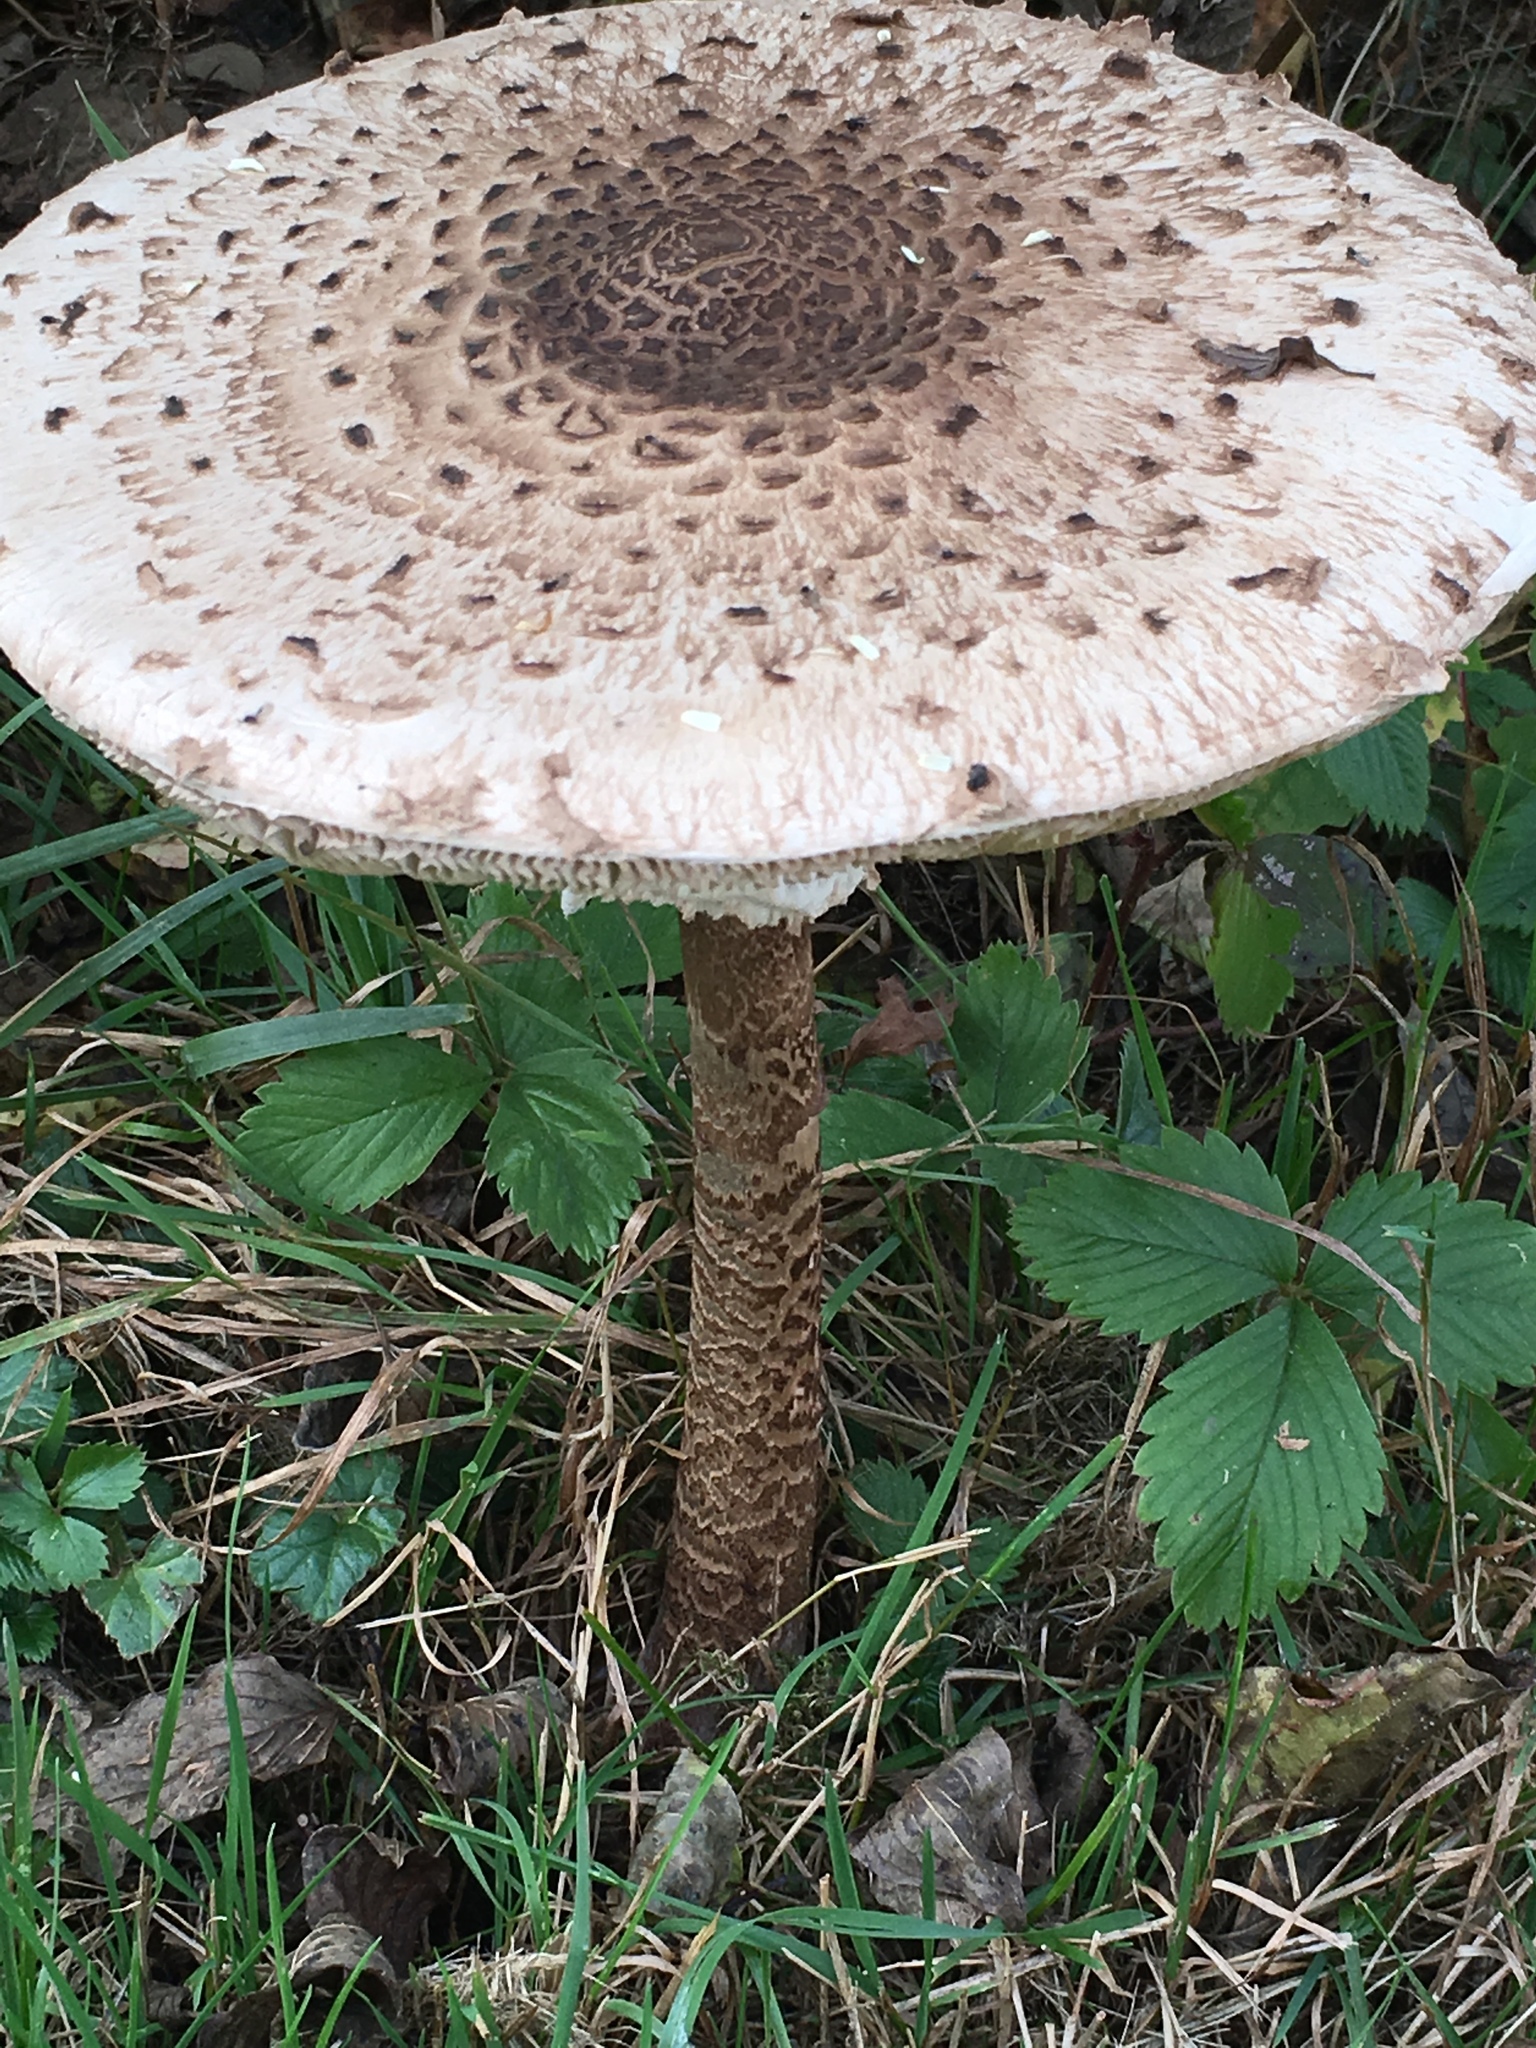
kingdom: Fungi
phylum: Basidiomycota
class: Agaricomycetes
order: Agaricales
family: Agaricaceae
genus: Macrolepiota
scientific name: Macrolepiota procera
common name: Parasol
